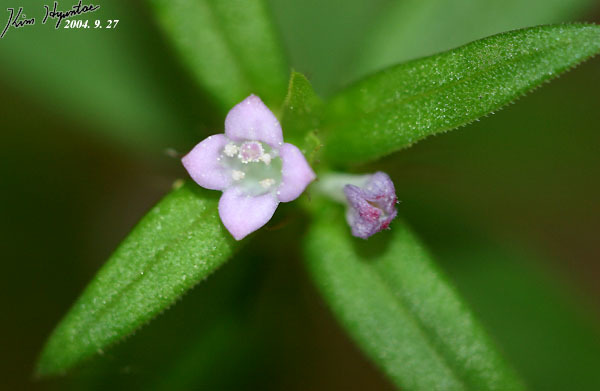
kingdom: Plantae
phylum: Tracheophyta
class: Magnoliopsida
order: Gentianales
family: Rubiaceae
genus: Hexasepalum
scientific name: Hexasepalum teres
